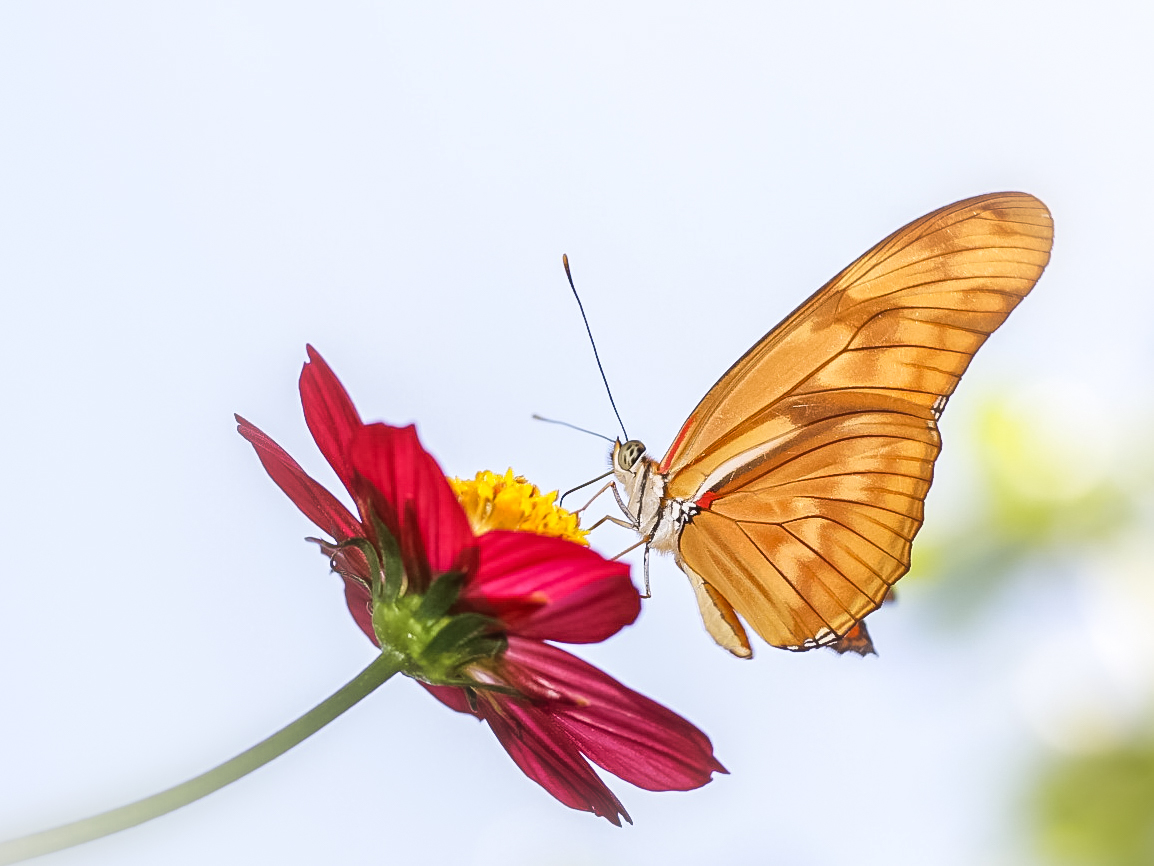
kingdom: Animalia
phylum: Arthropoda
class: Insecta
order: Lepidoptera
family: Nymphalidae
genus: Dryas
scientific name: Dryas iulia
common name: Flambeau
